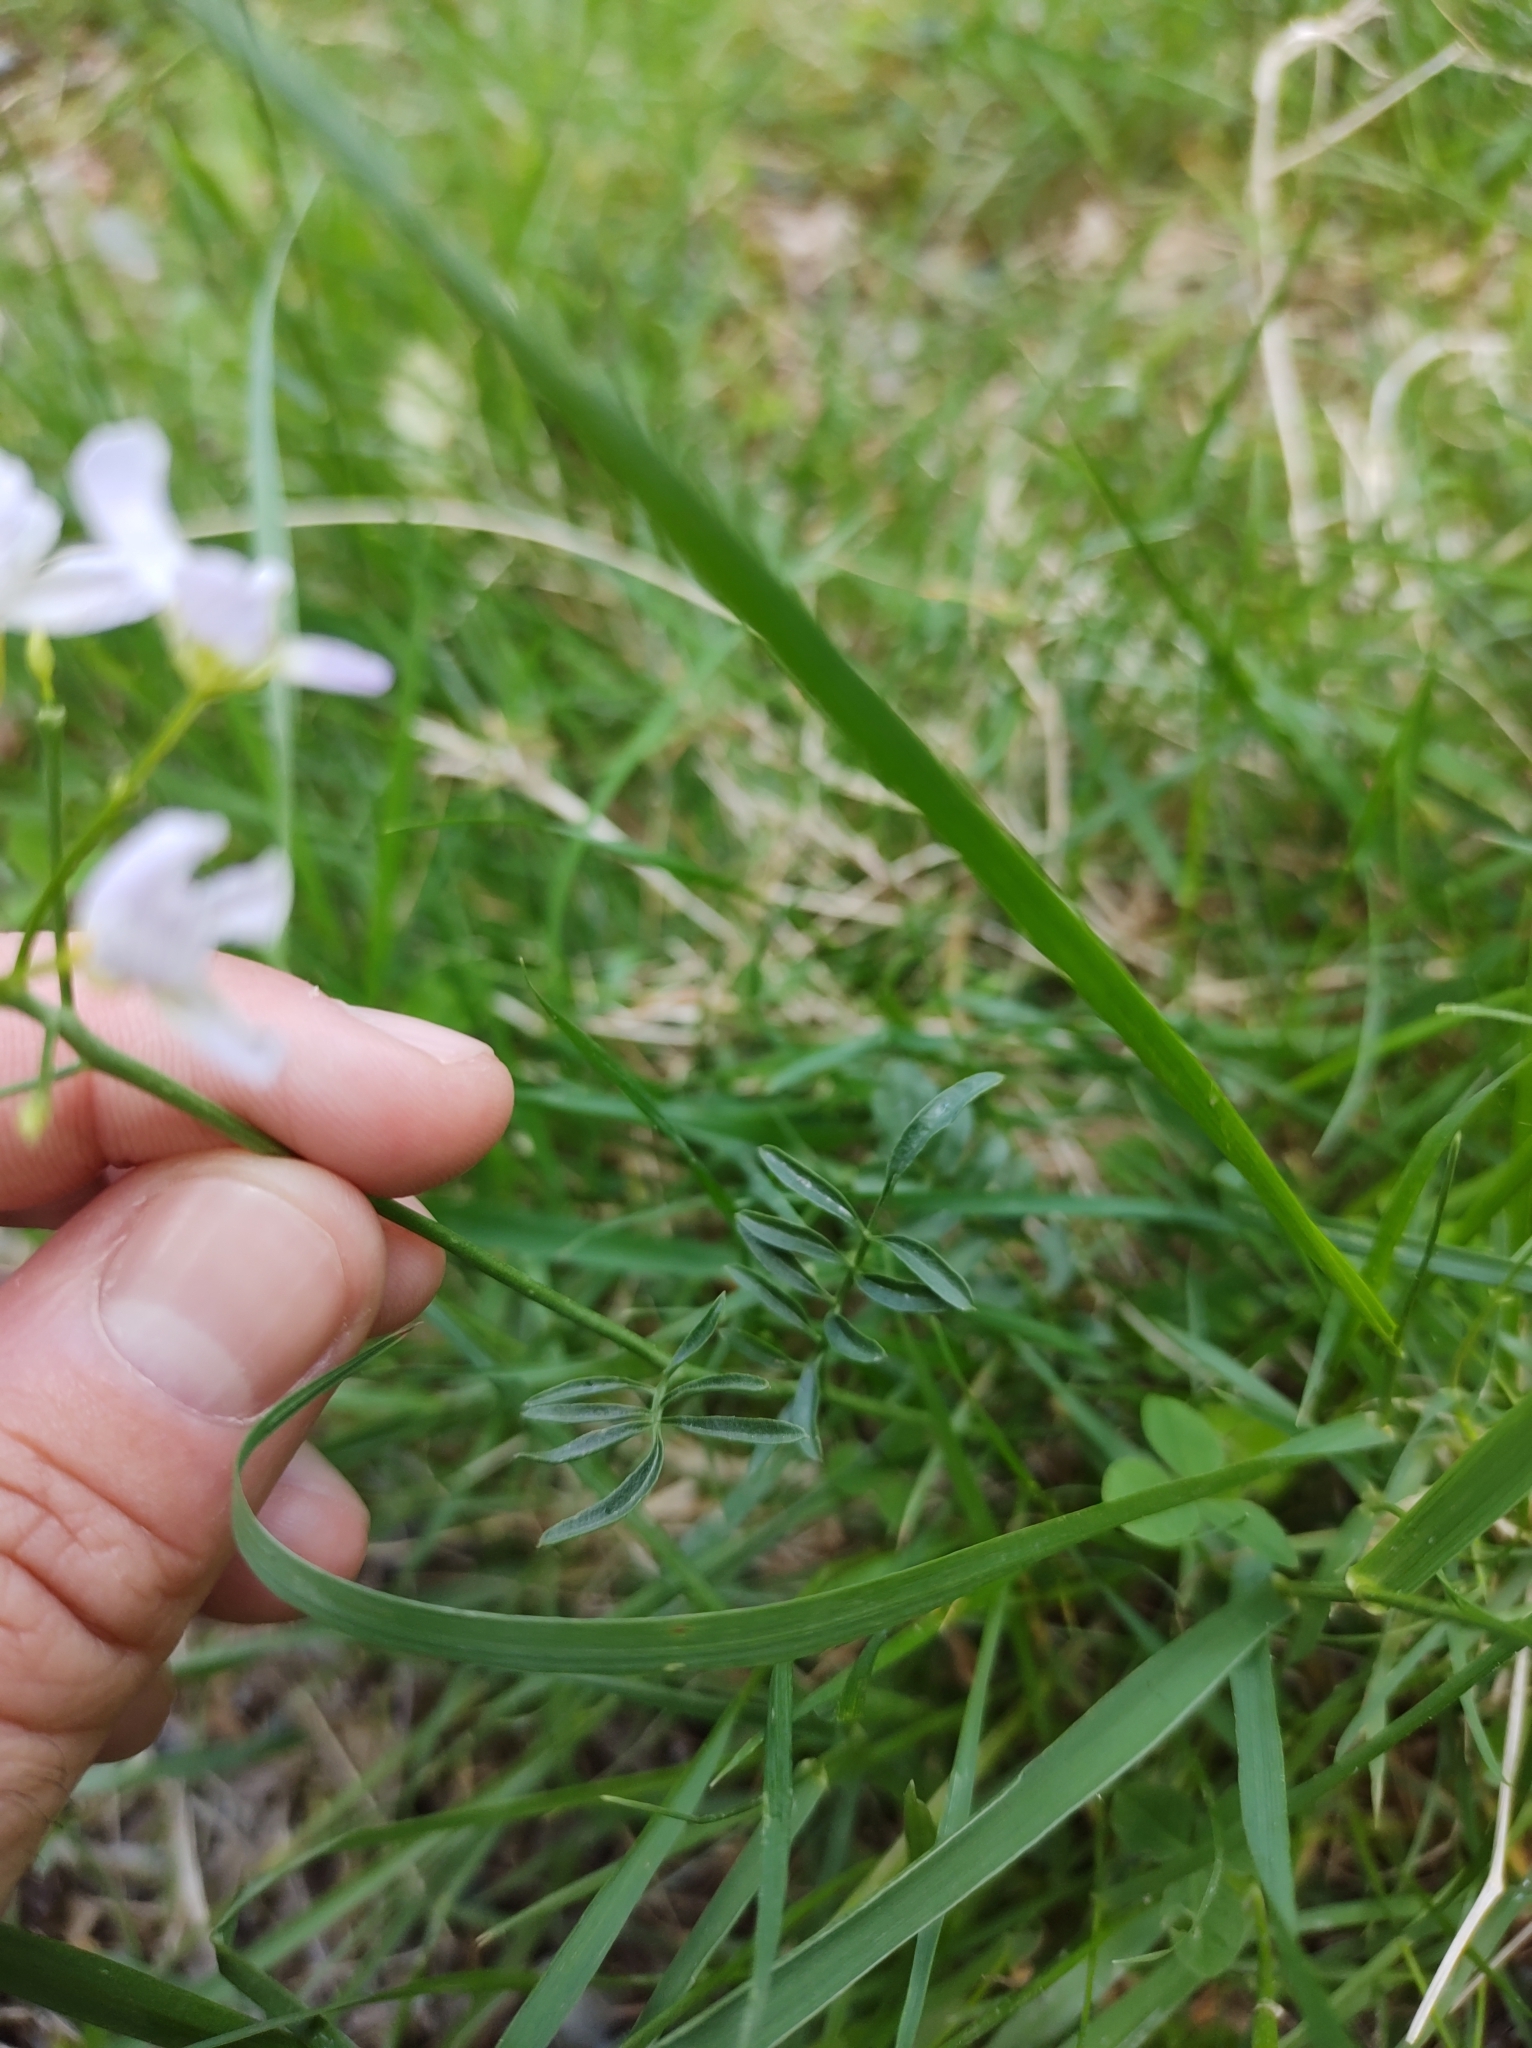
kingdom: Plantae
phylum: Tracheophyta
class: Magnoliopsida
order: Brassicales
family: Brassicaceae
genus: Cardamine
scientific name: Cardamine pratensis
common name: Cuckoo flower
